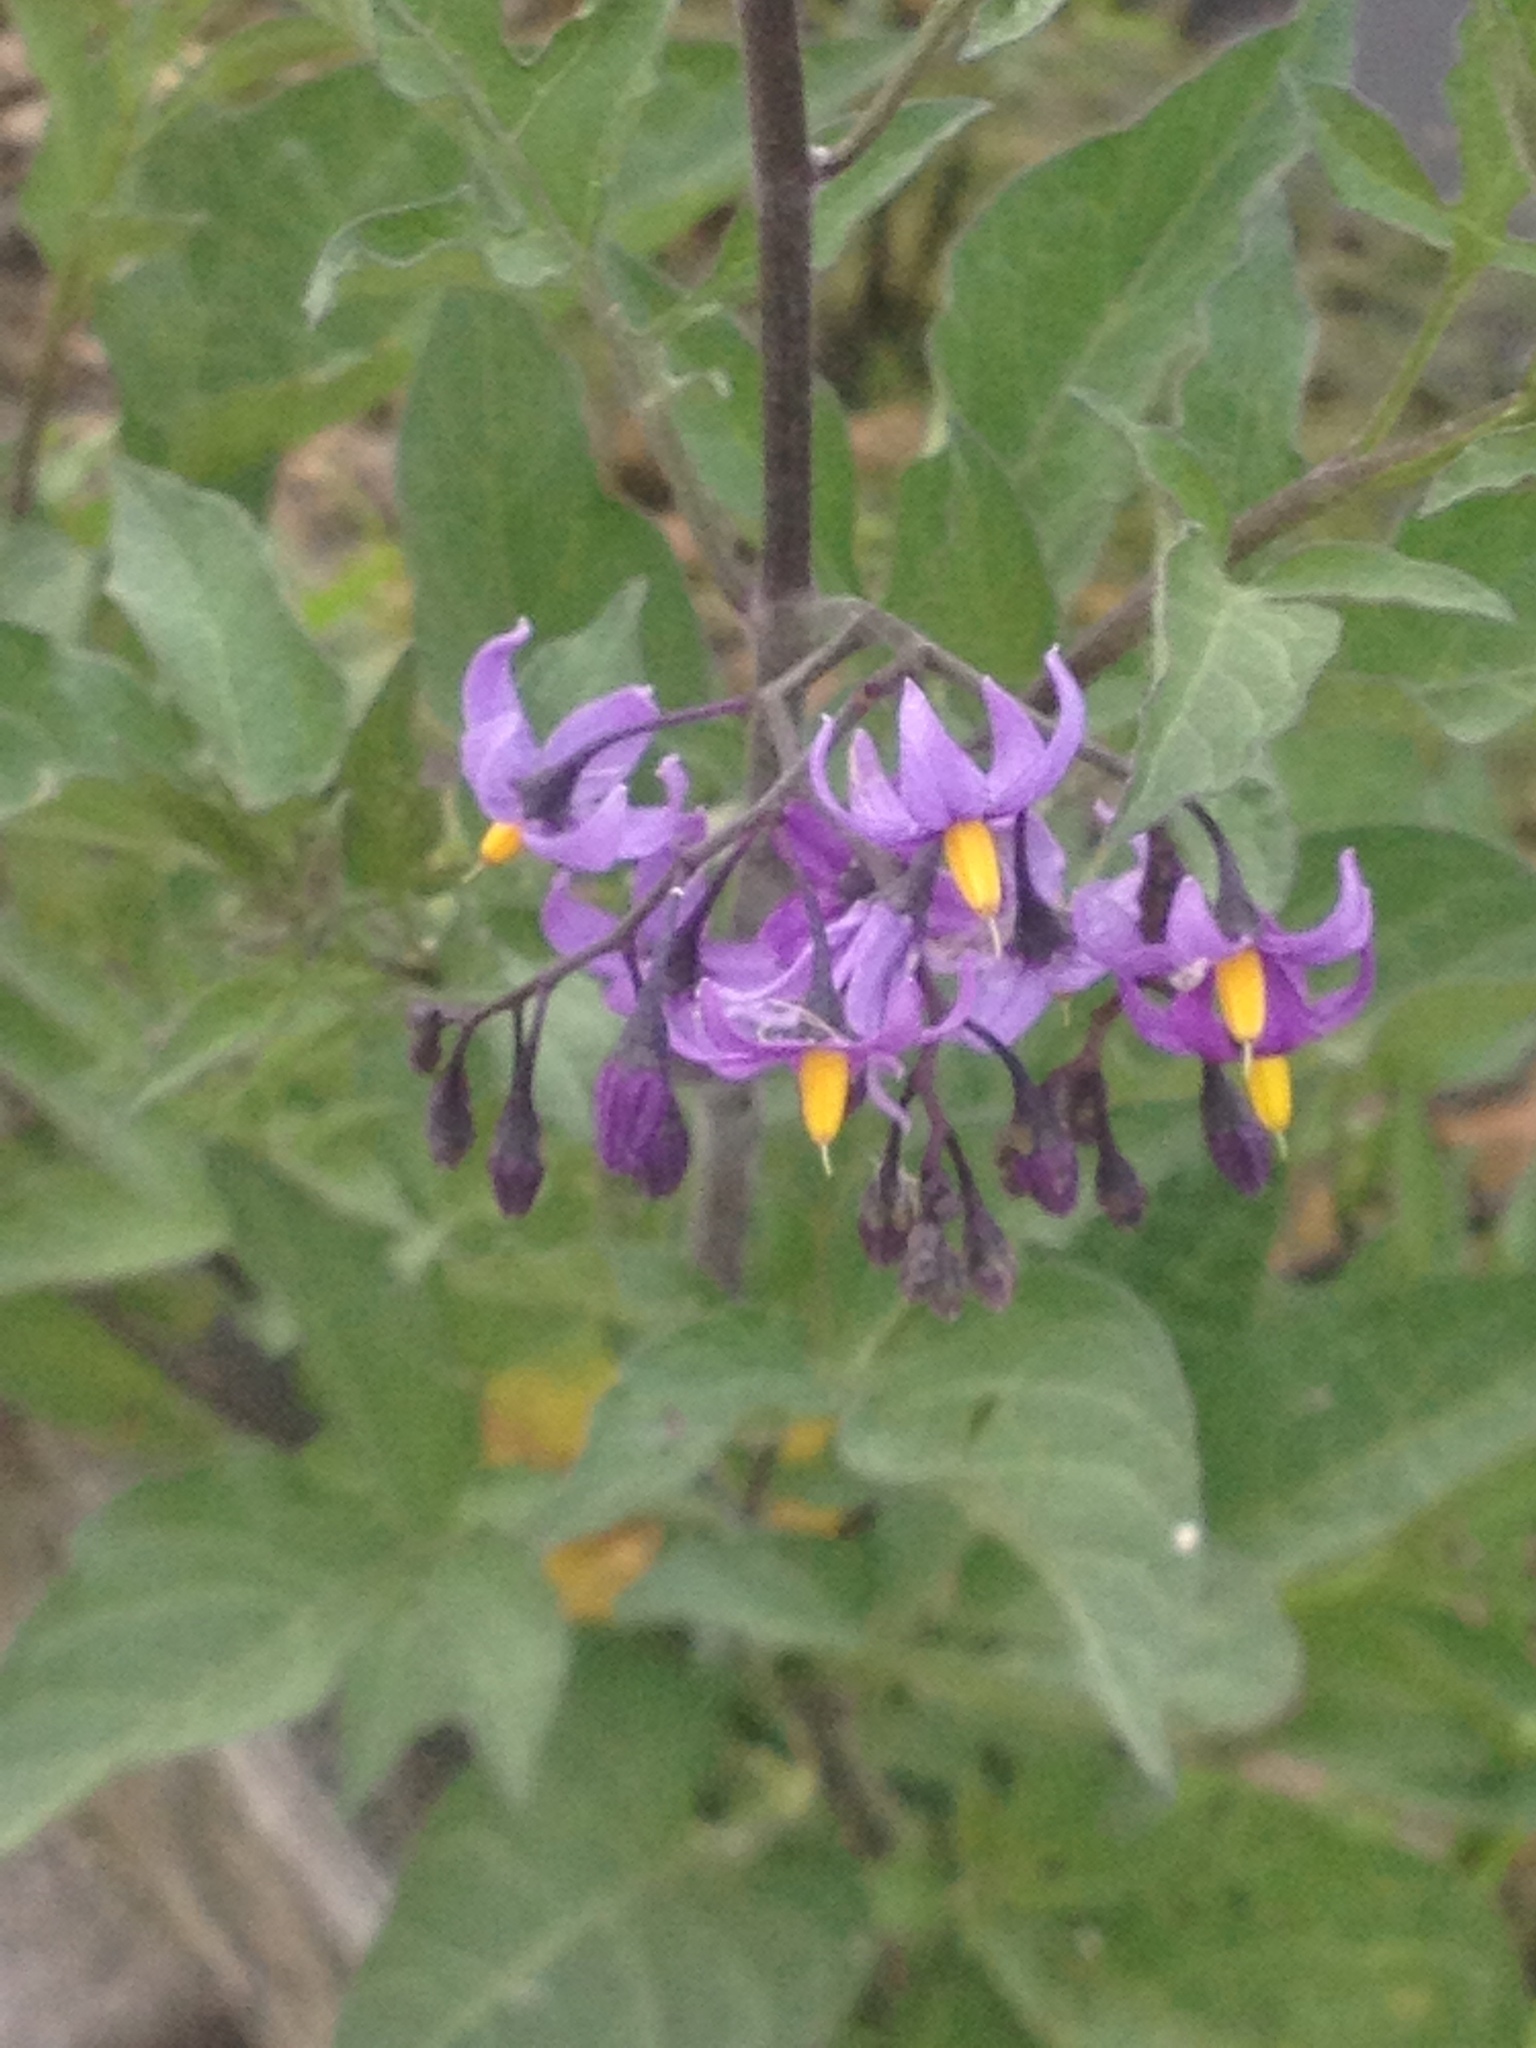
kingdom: Plantae
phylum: Tracheophyta
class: Magnoliopsida
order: Solanales
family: Solanaceae
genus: Solanum
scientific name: Solanum dulcamara
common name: Climbing nightshade
